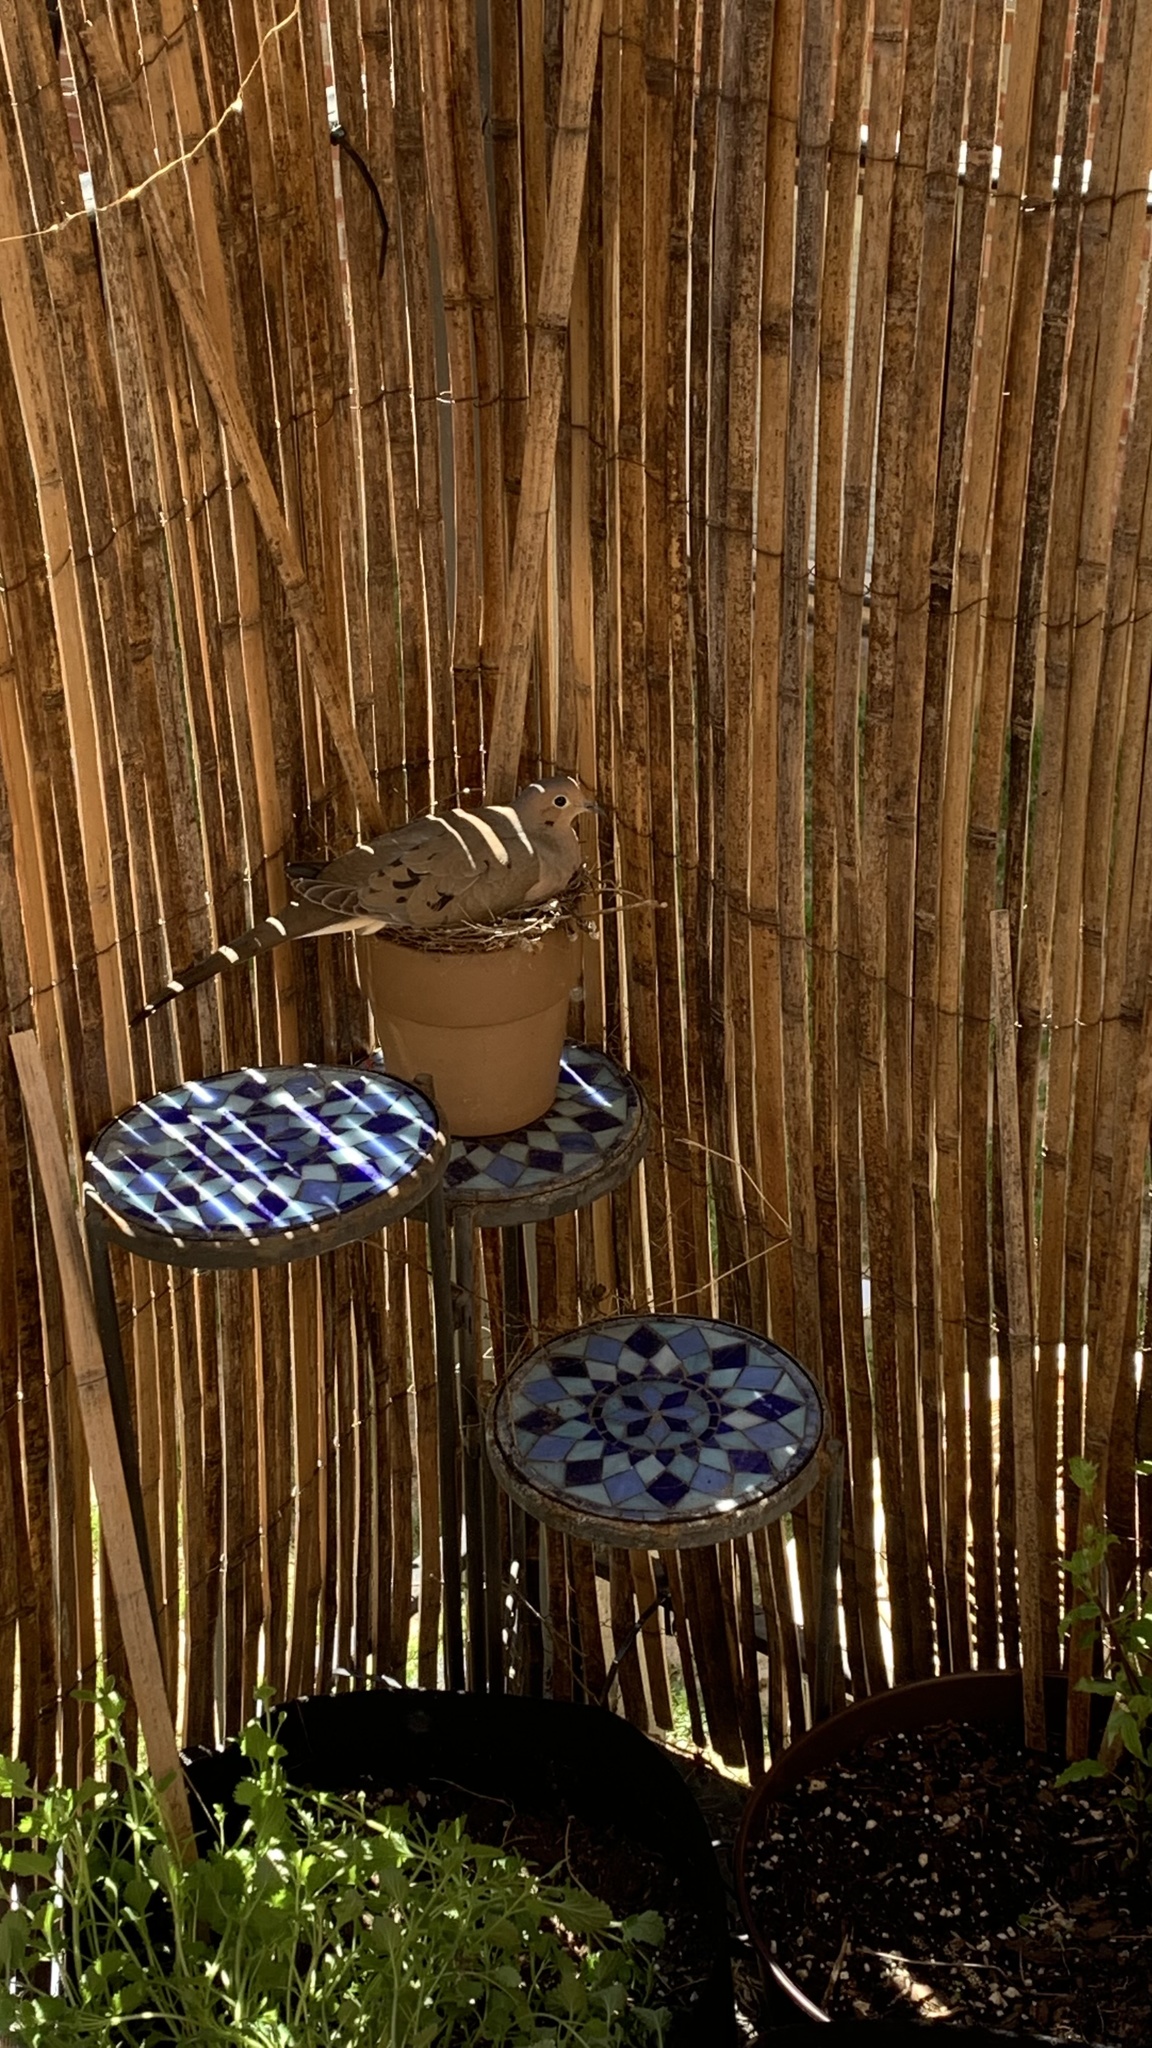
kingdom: Animalia
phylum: Chordata
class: Aves
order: Columbiformes
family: Columbidae
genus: Zenaida
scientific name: Zenaida macroura
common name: Mourning dove
